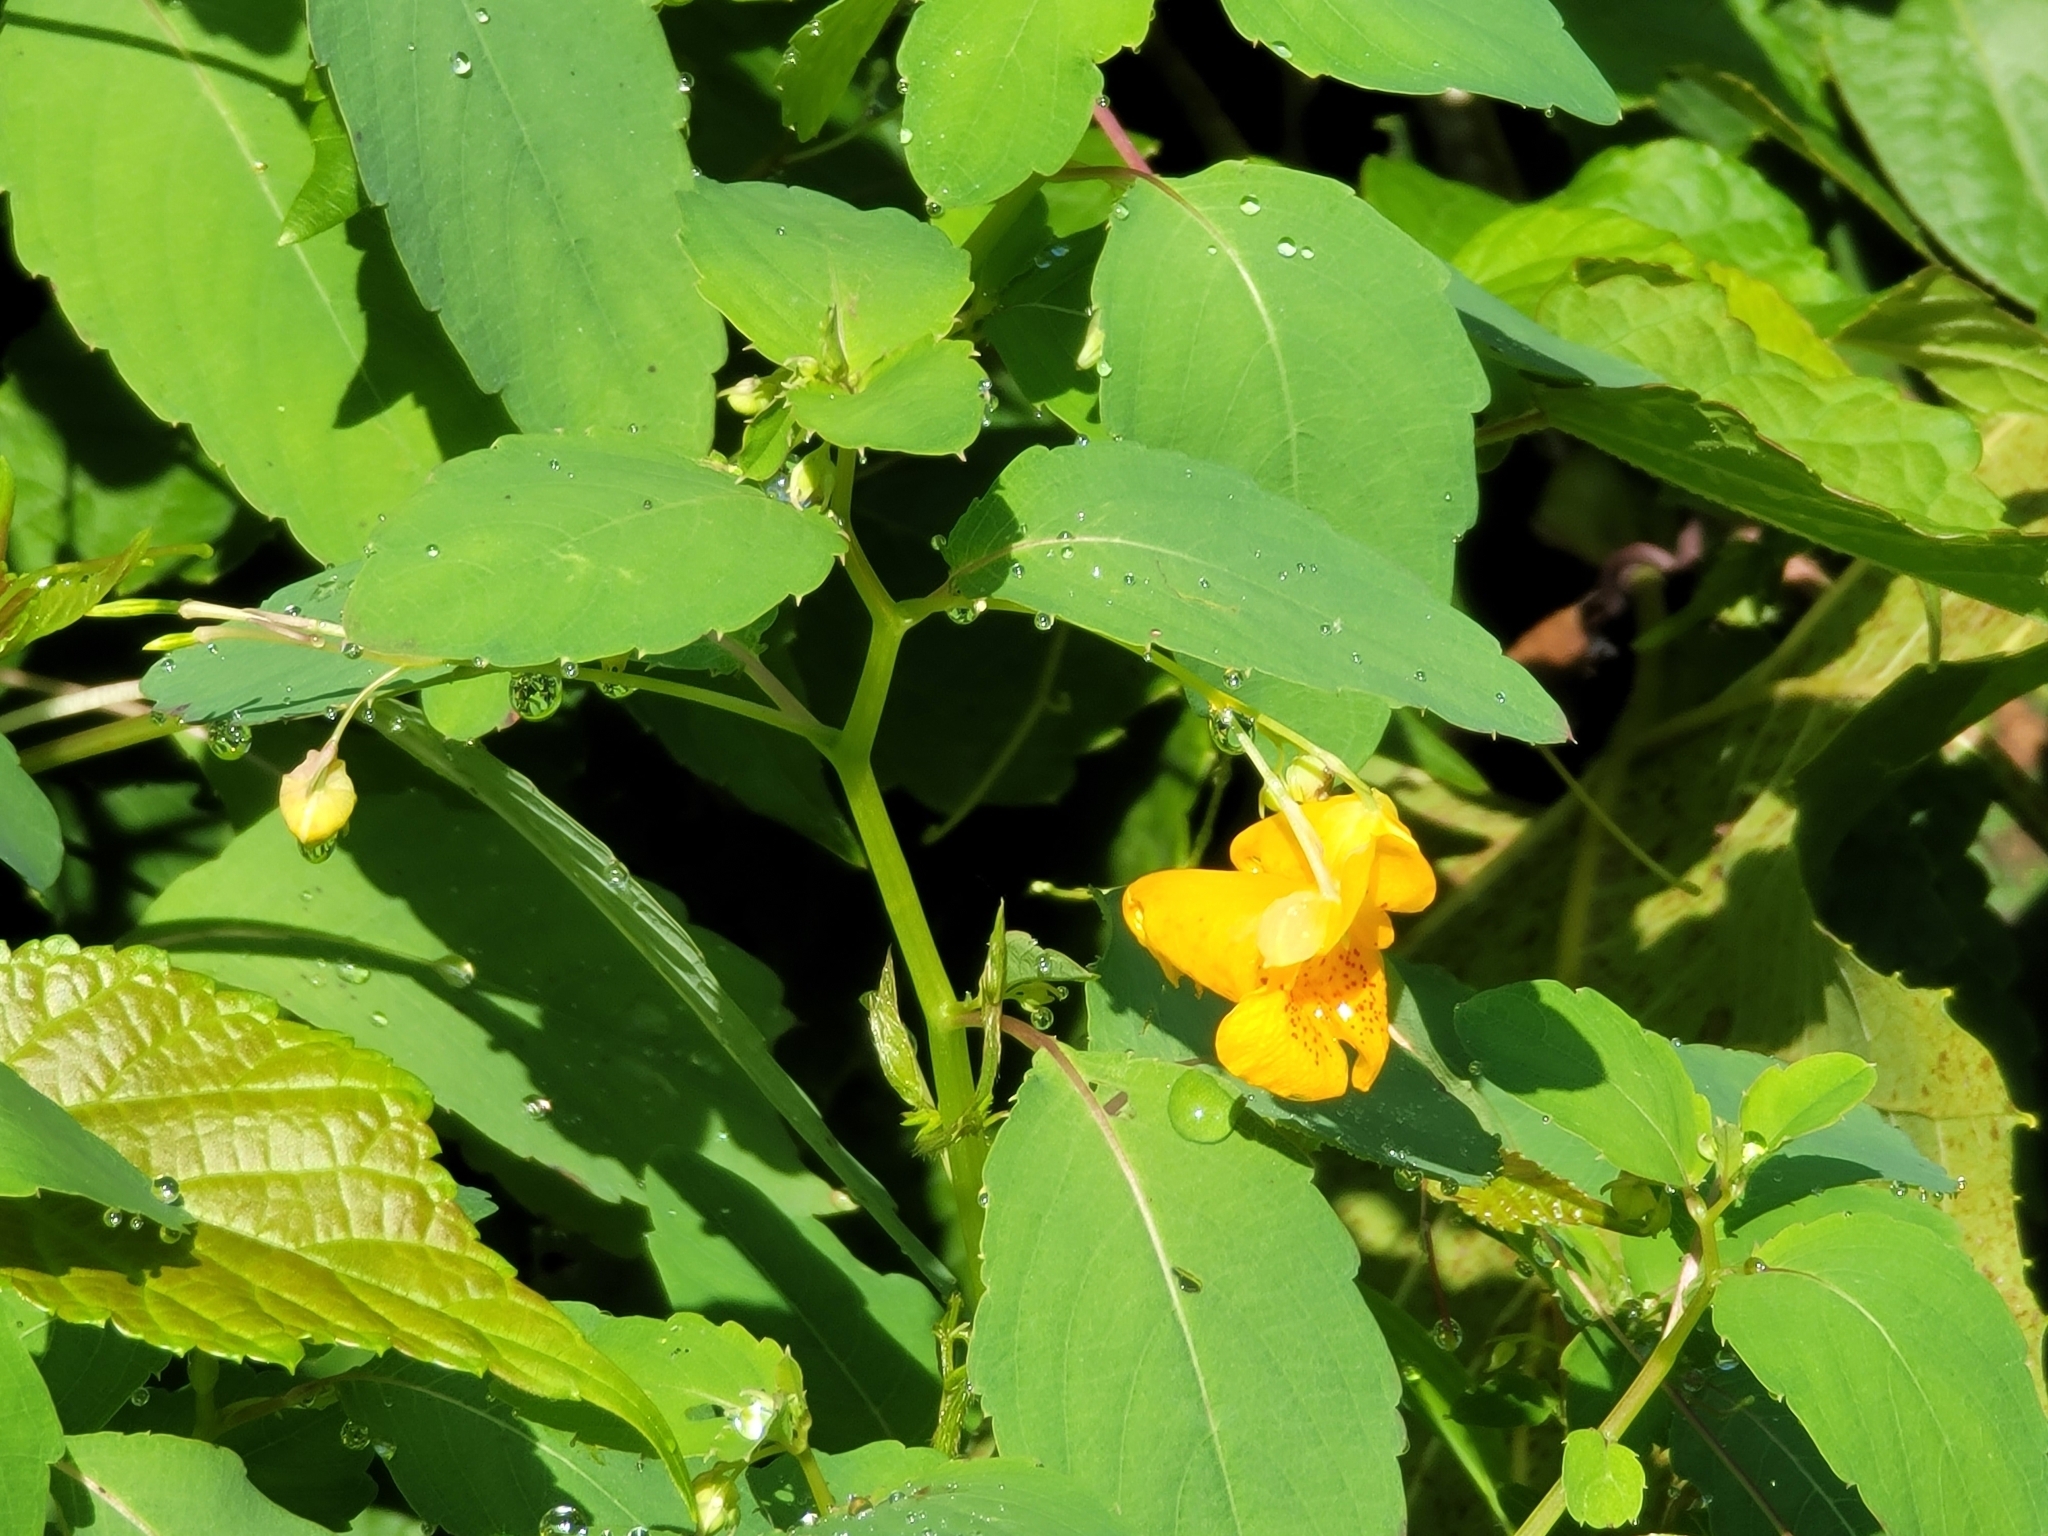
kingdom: Plantae
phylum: Tracheophyta
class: Magnoliopsida
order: Ericales
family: Balsaminaceae
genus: Impatiens
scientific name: Impatiens capensis
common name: Orange balsam
